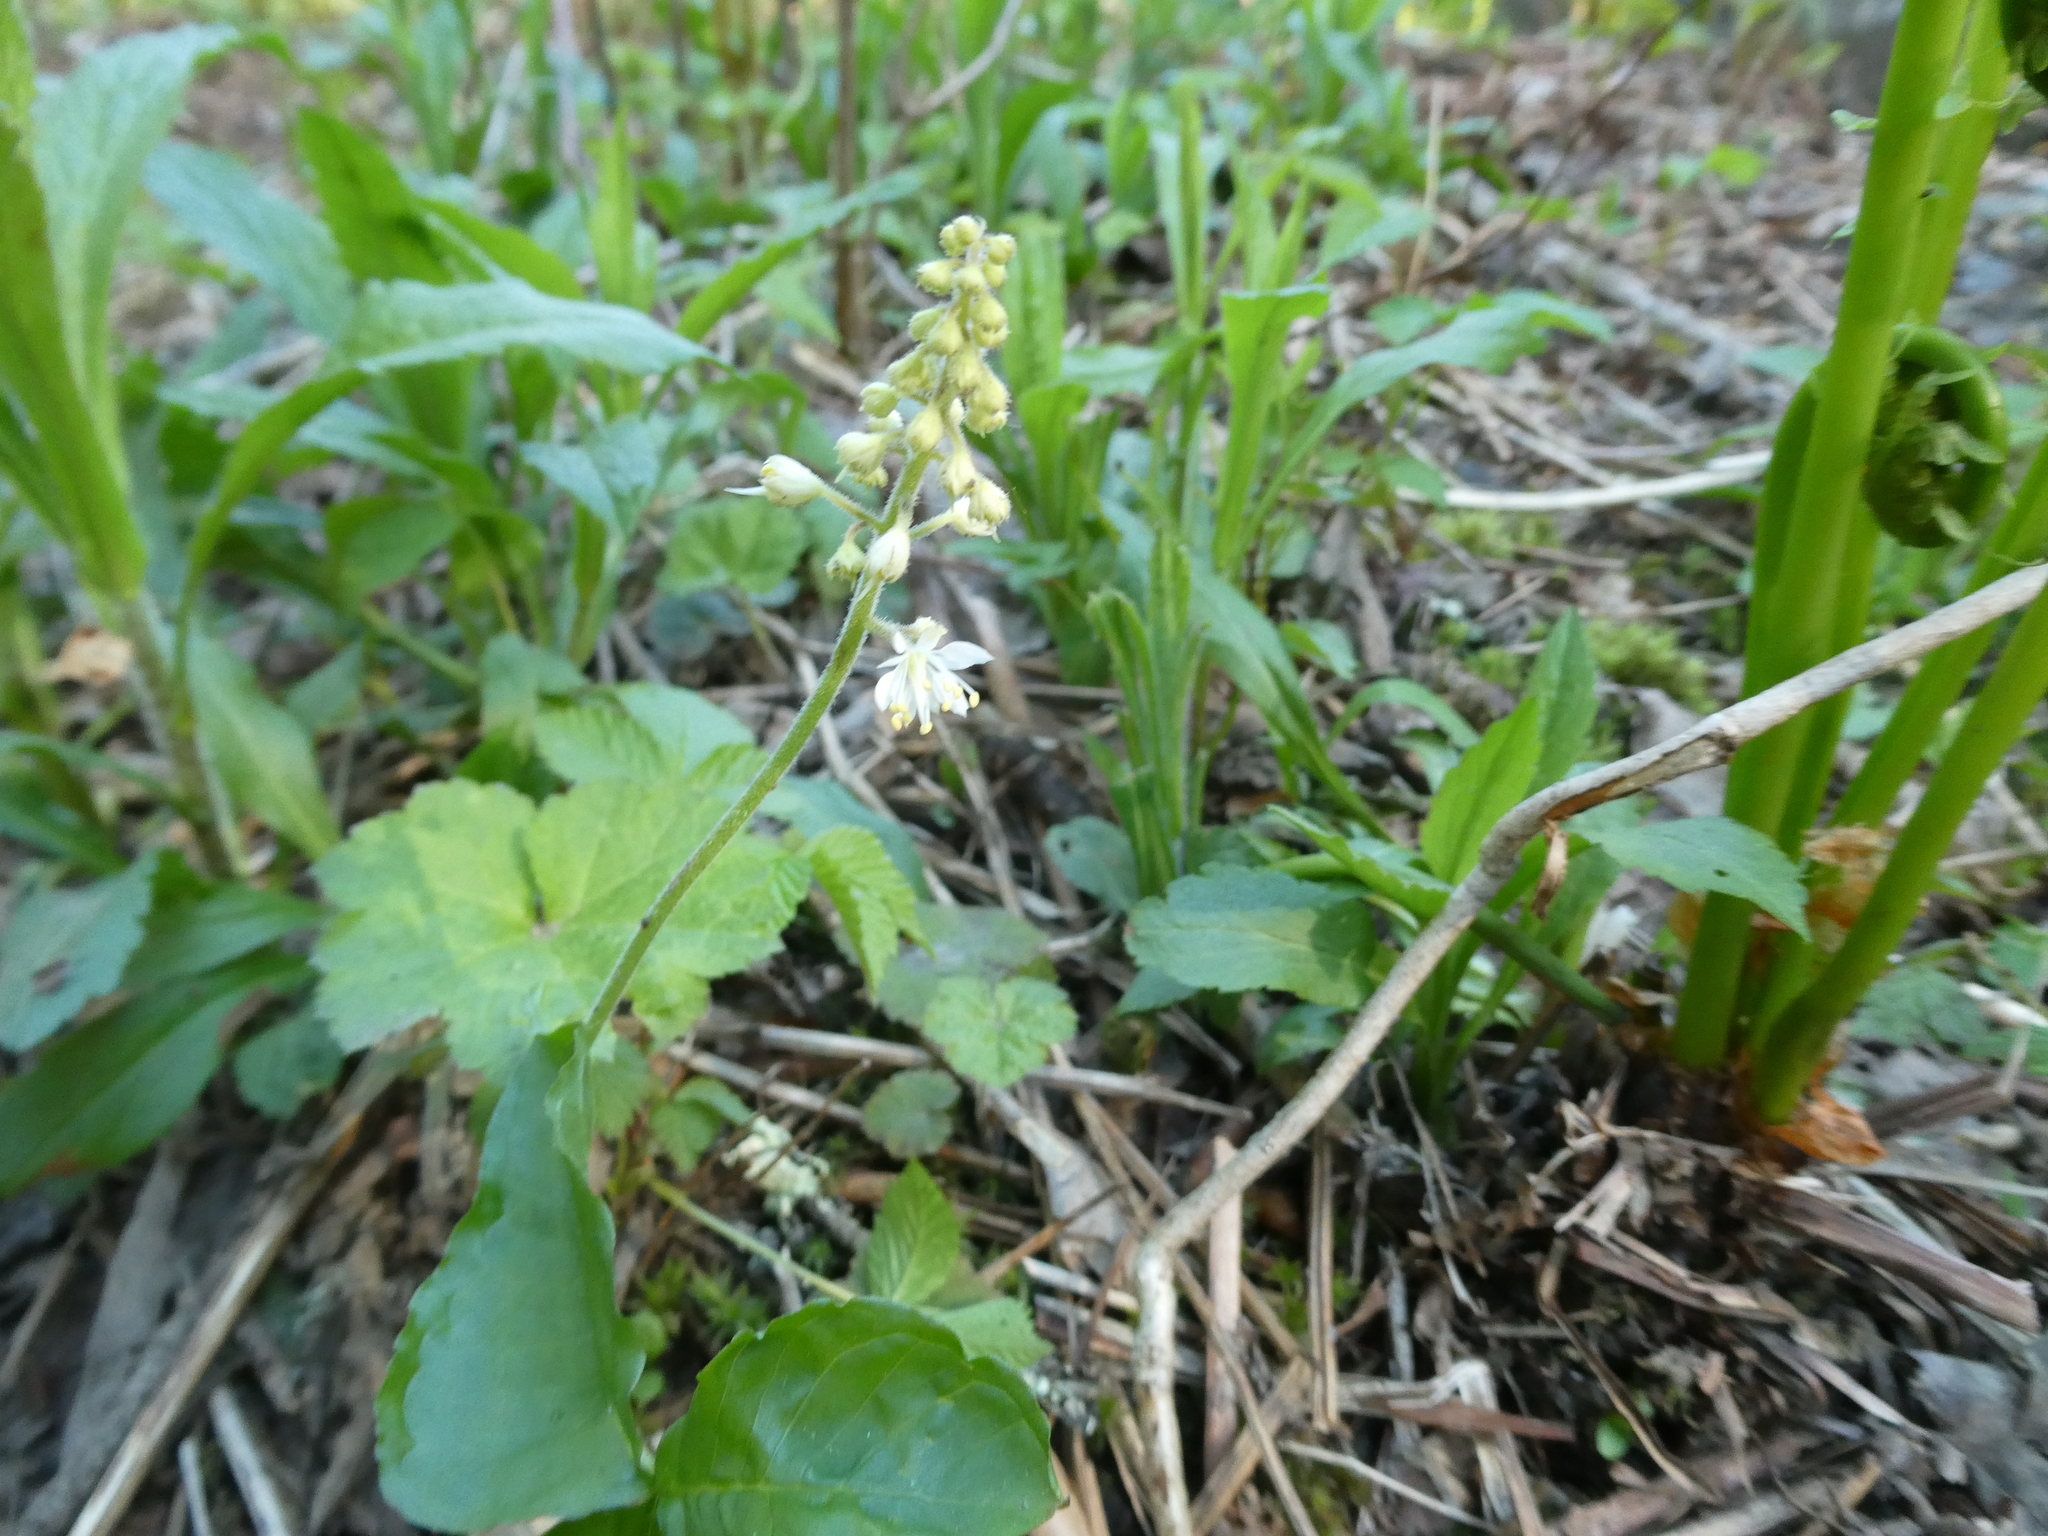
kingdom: Plantae
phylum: Tracheophyta
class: Magnoliopsida
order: Saxifragales
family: Saxifragaceae
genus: Tiarella
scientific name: Tiarella stolonifera
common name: Stoloniferous foamflower
